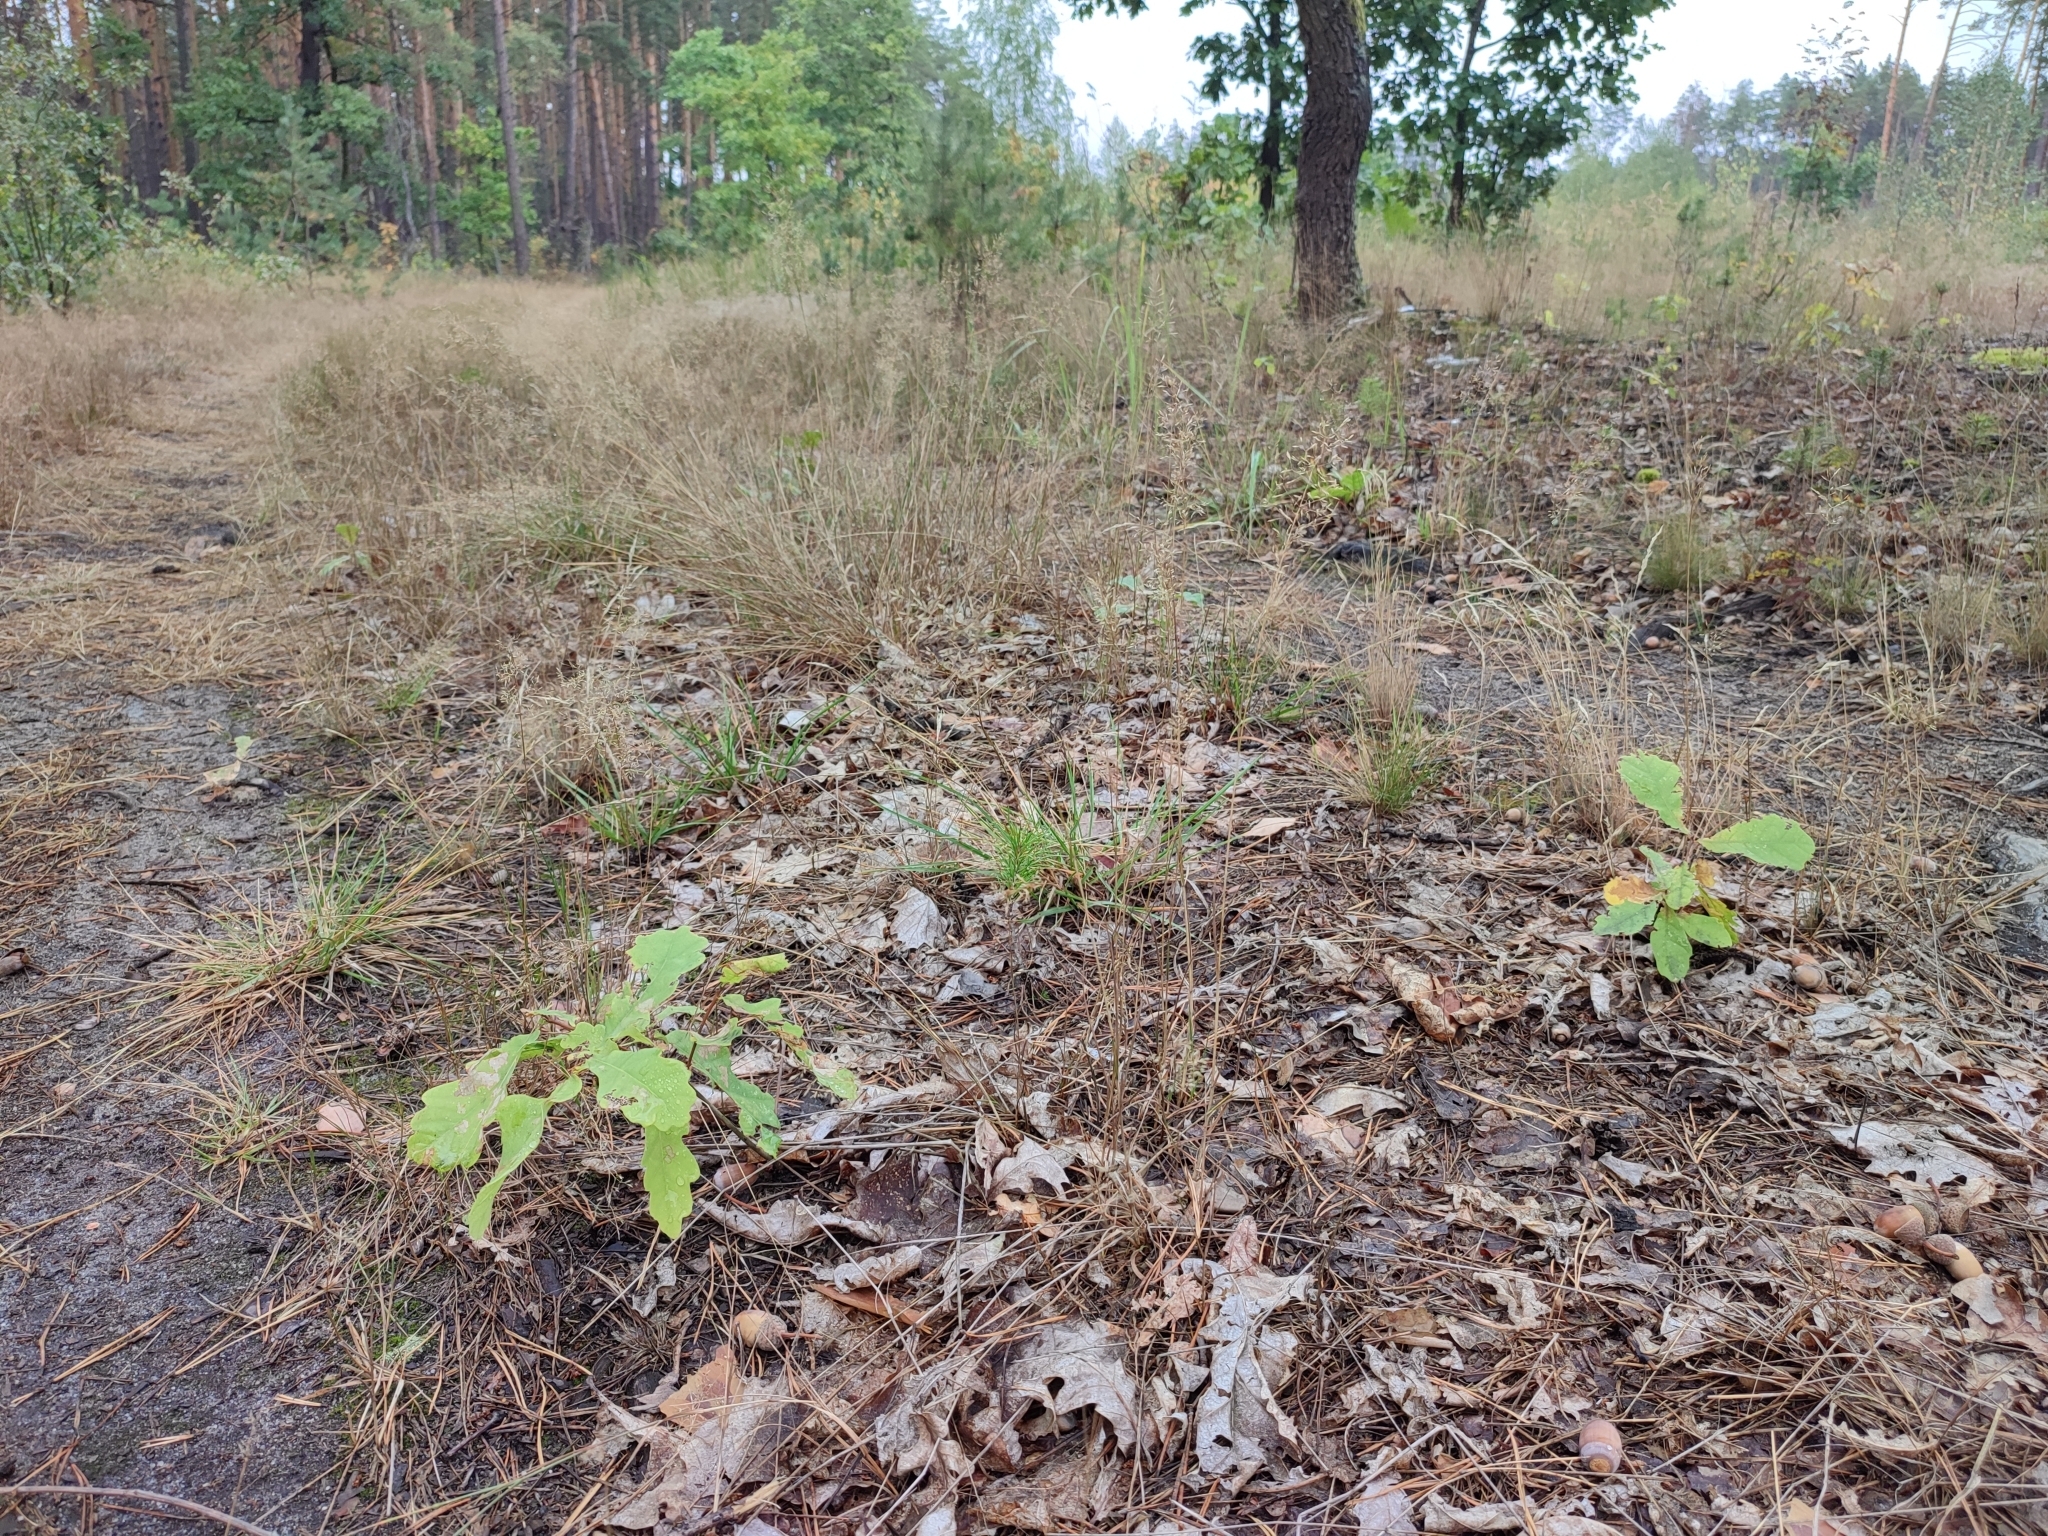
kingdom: Plantae
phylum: Tracheophyta
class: Magnoliopsida
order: Fagales
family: Fagaceae
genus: Quercus
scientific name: Quercus robur
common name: Pedunculate oak
